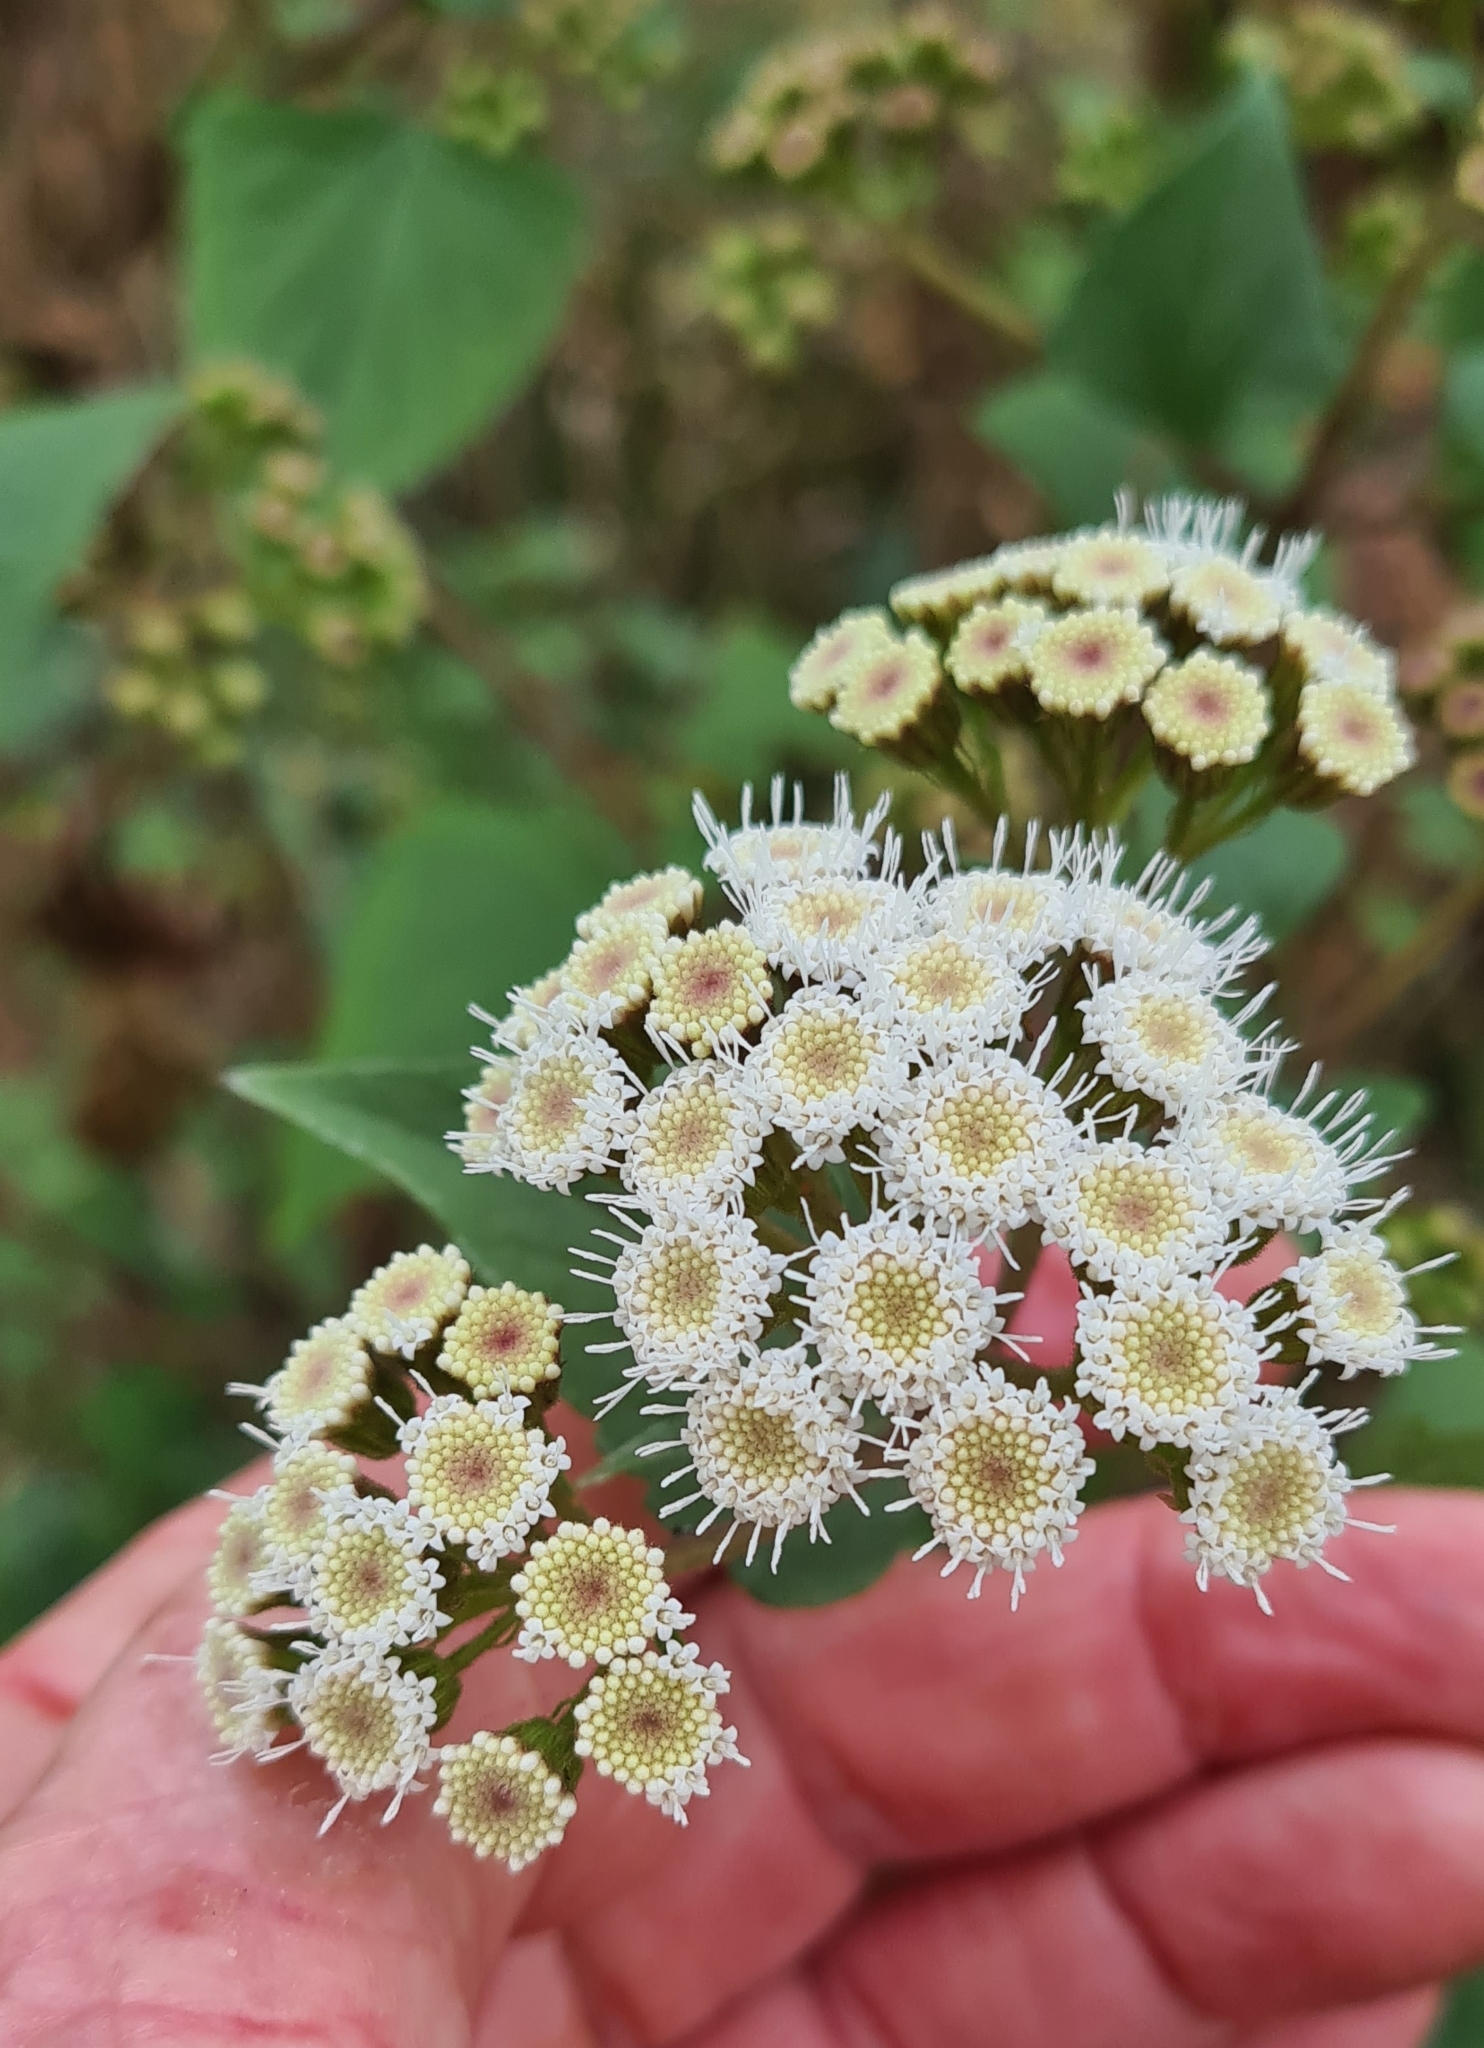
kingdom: Plantae
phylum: Tracheophyta
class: Magnoliopsida
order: Asterales
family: Asteraceae
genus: Ageratina
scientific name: Ageratina adenophora
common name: Sticky snakeroot
